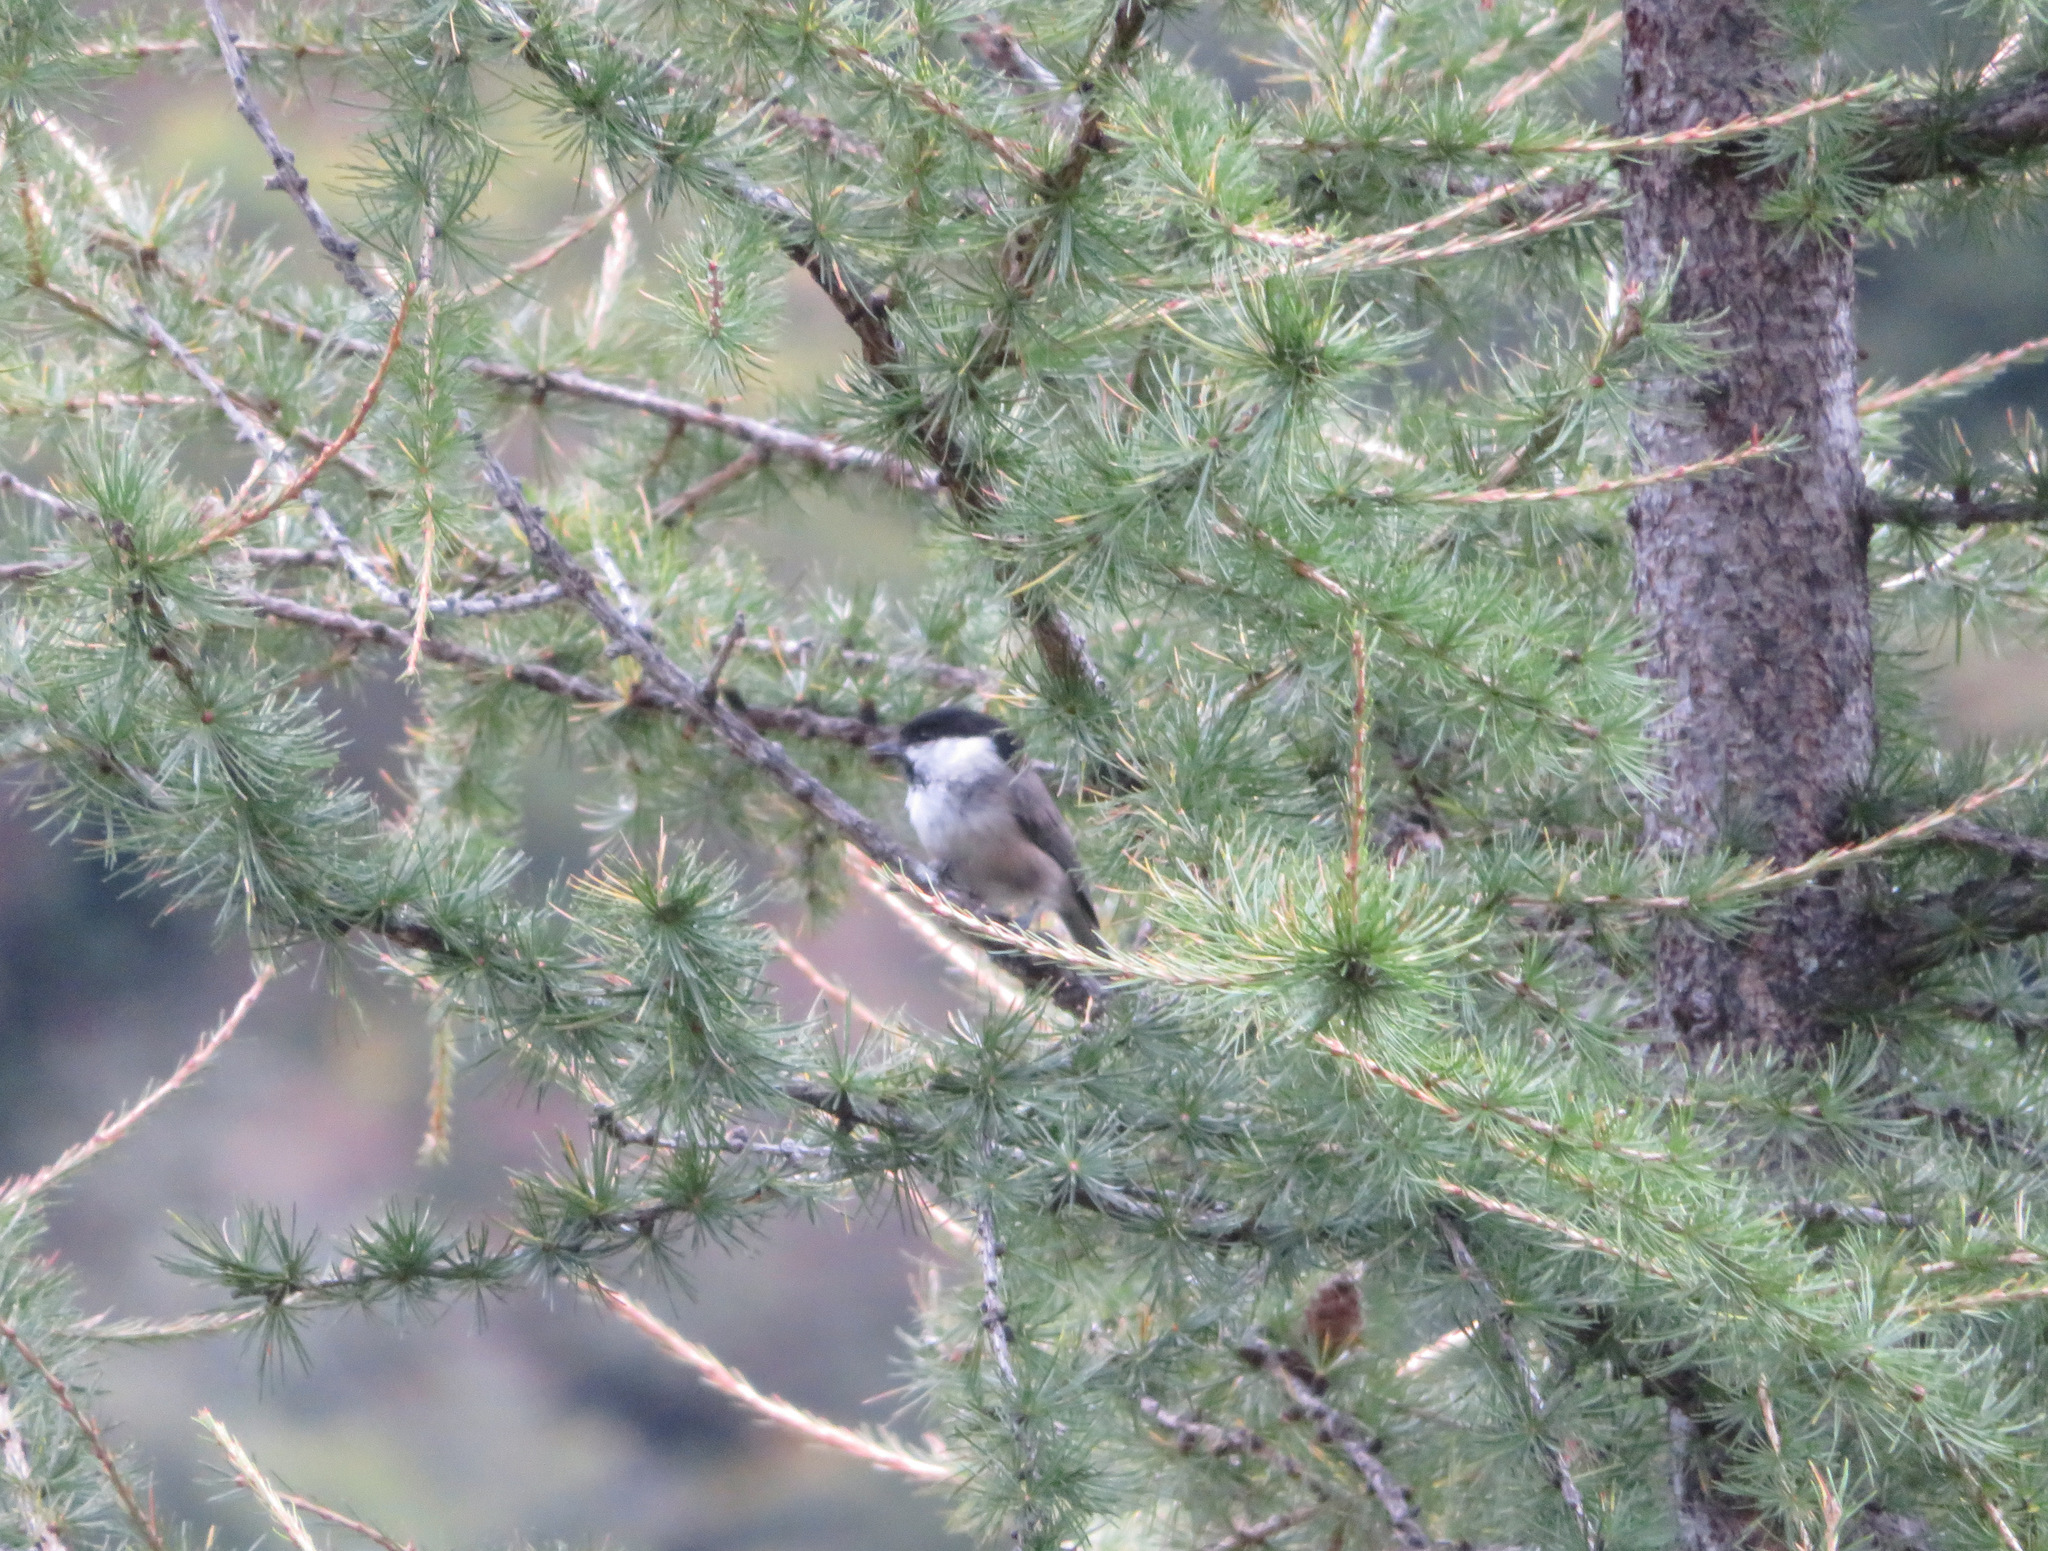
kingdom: Animalia
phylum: Chordata
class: Aves
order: Passeriformes
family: Paridae
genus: Poecile
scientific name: Poecile montanus
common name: Willow tit
